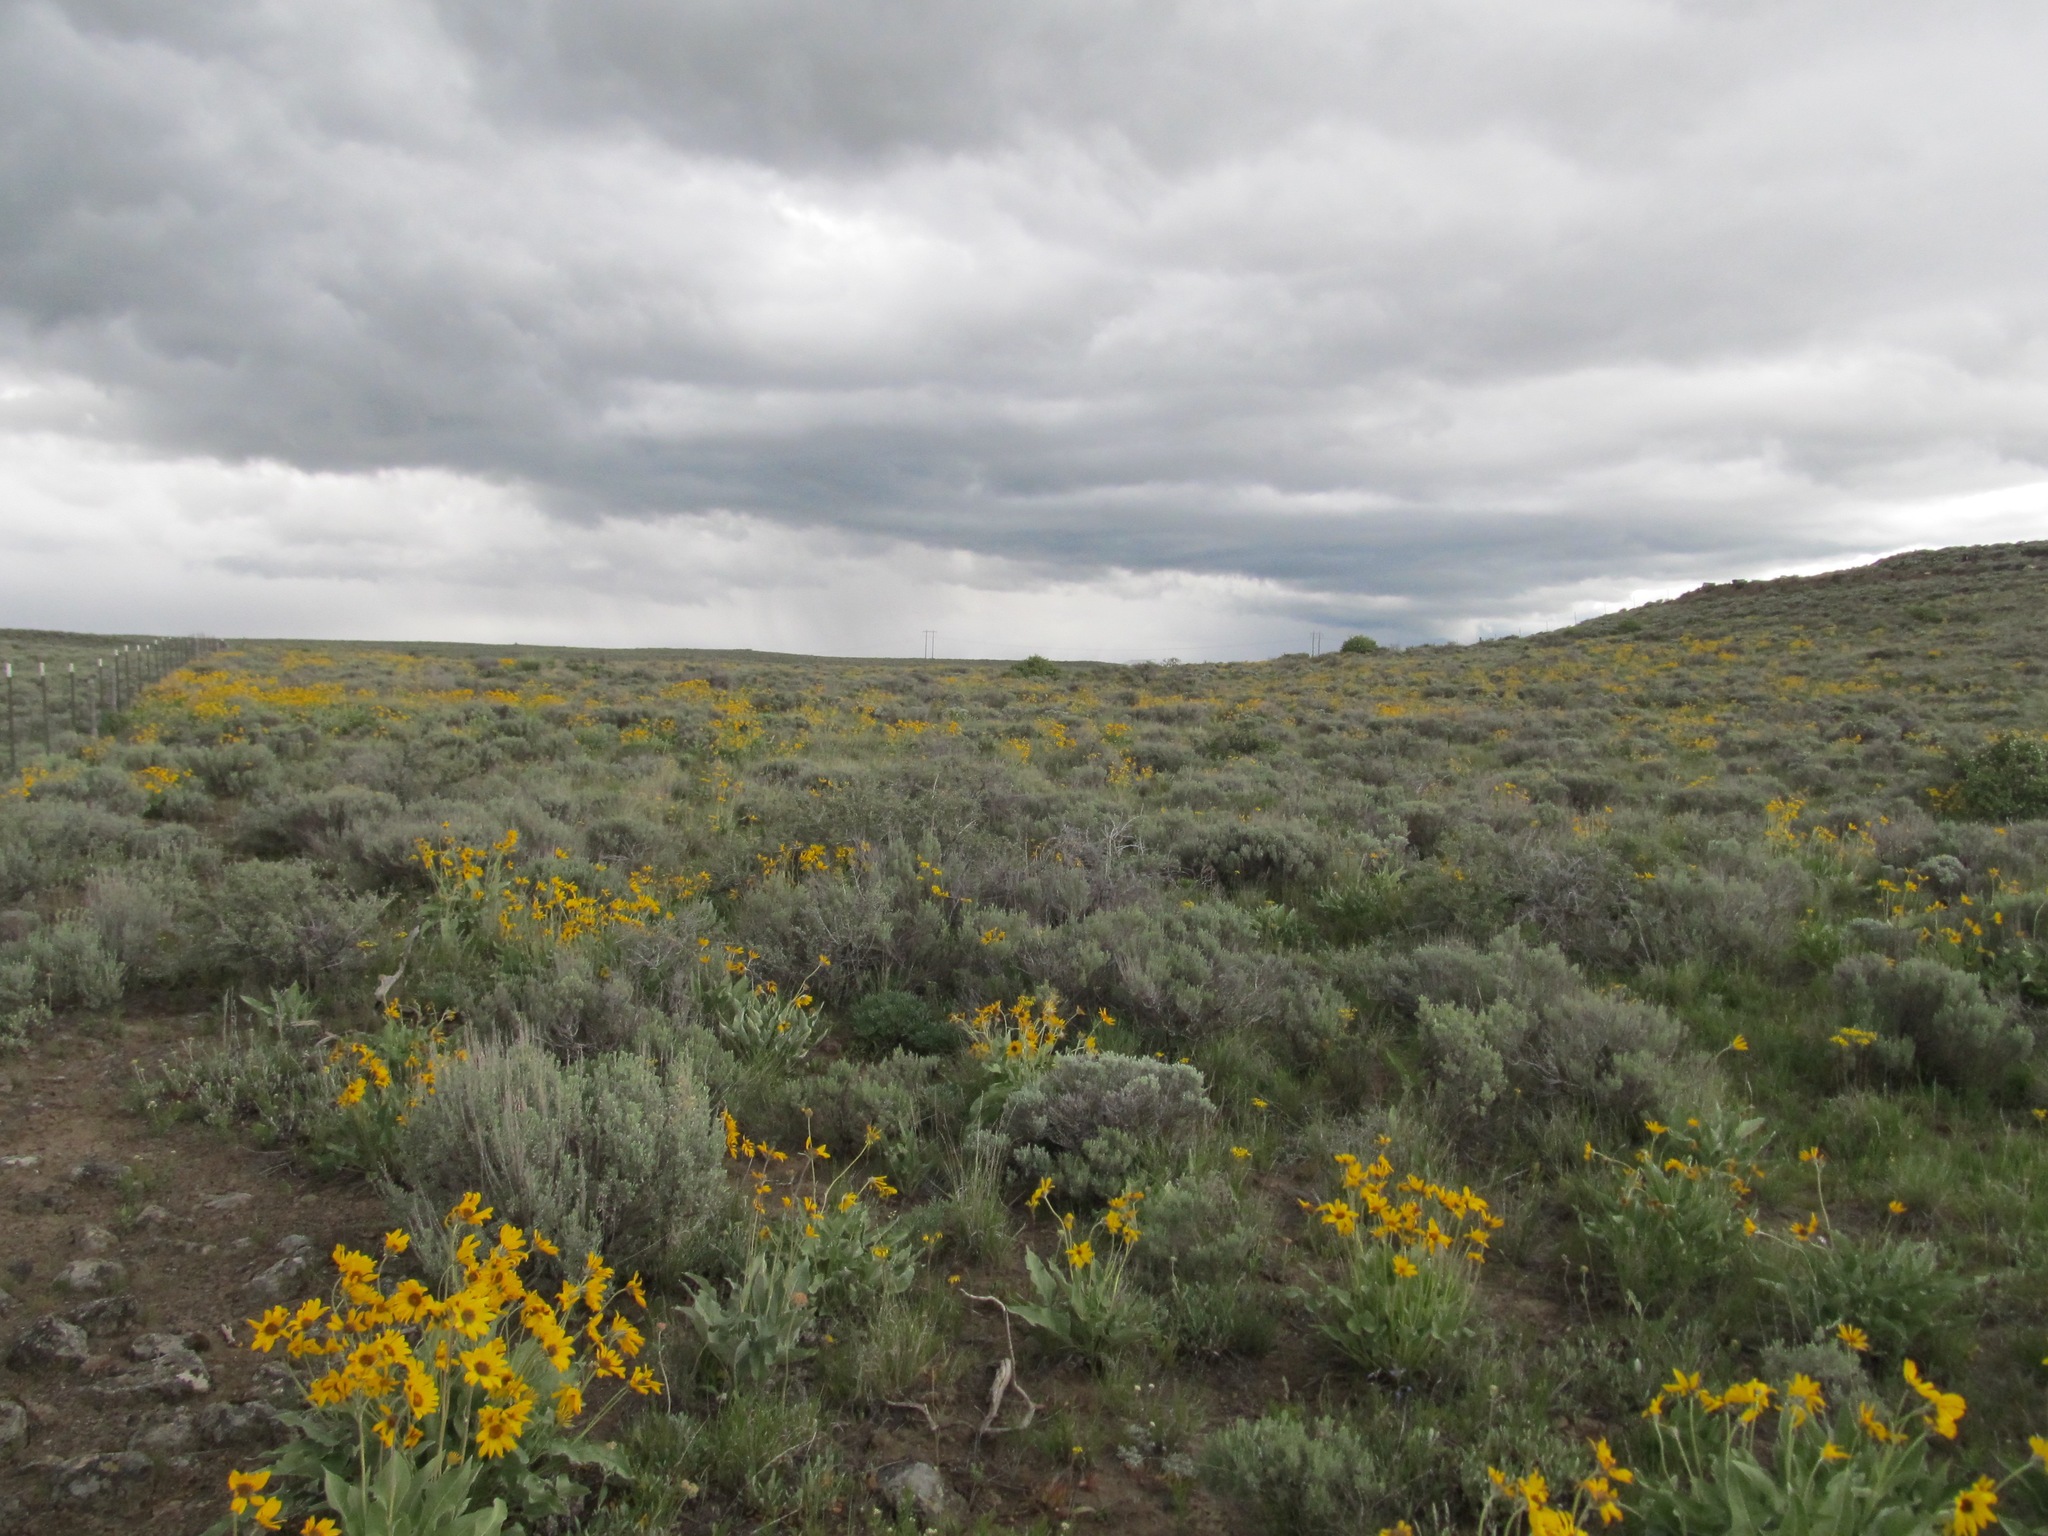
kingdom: Plantae
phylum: Tracheophyta
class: Magnoliopsida
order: Asterales
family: Asteraceae
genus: Wyethia
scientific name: Wyethia sagittata
